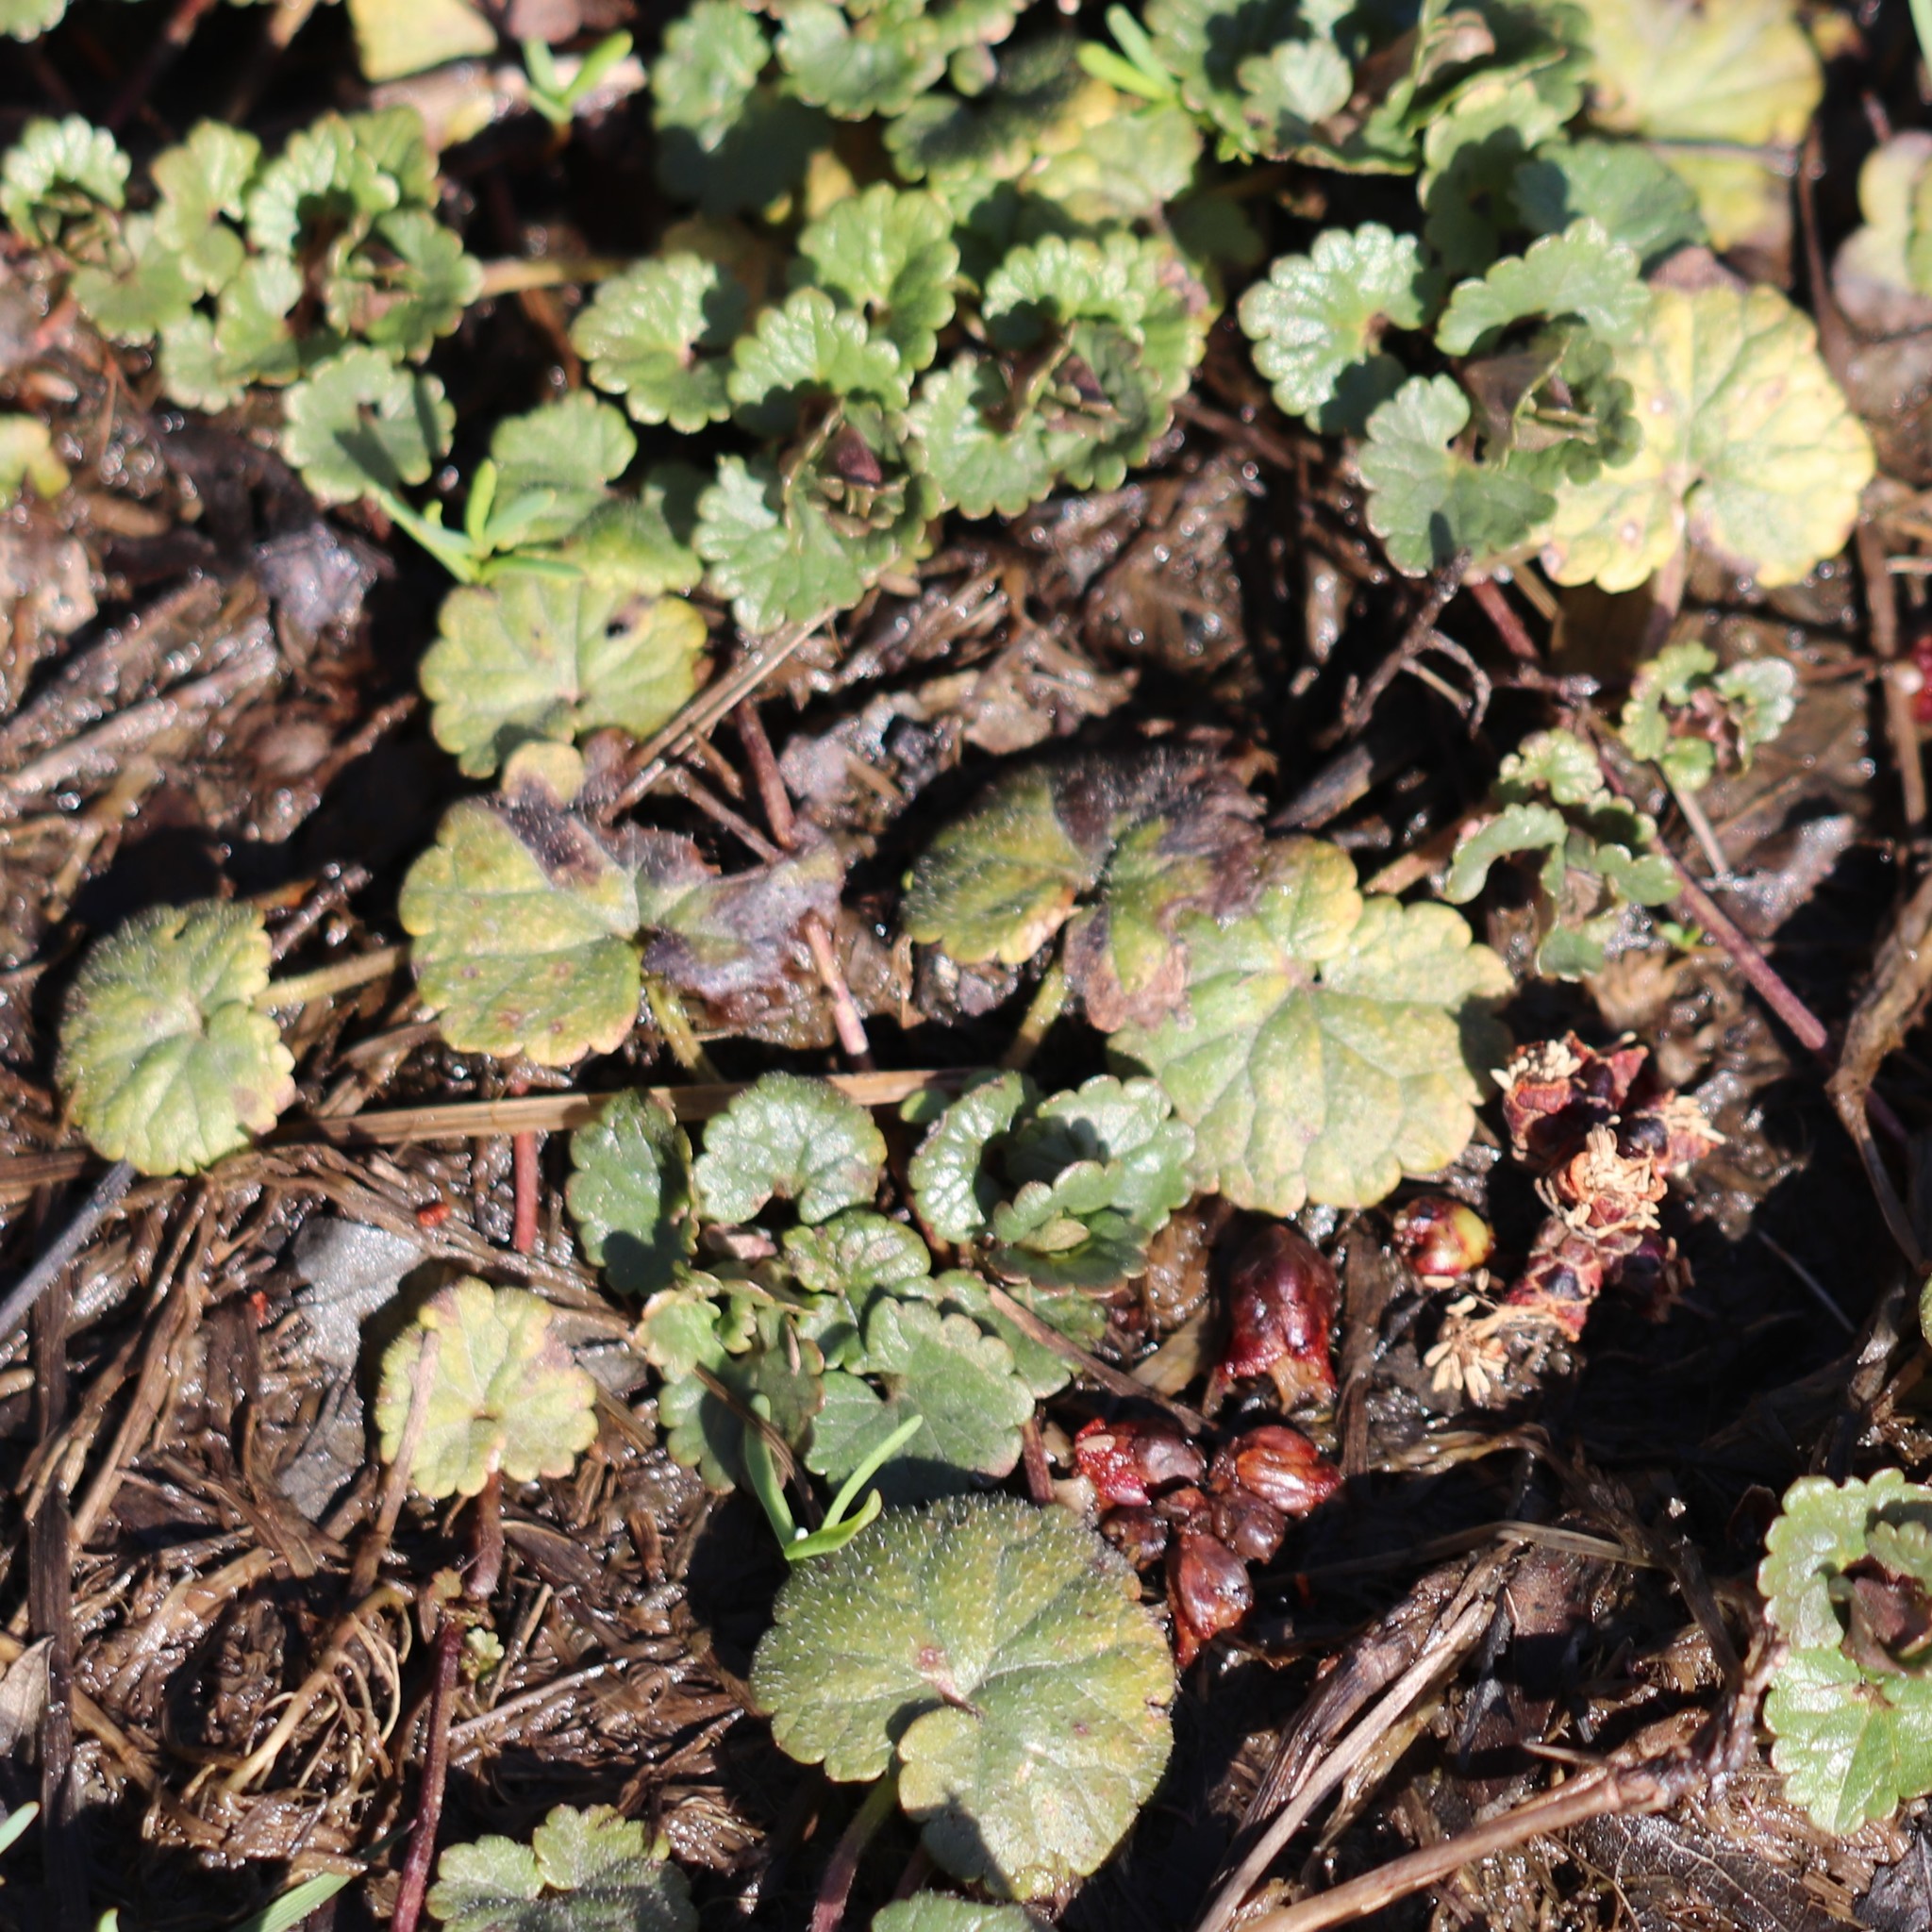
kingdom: Plantae
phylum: Tracheophyta
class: Magnoliopsida
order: Lamiales
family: Lamiaceae
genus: Glechoma
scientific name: Glechoma hederacea
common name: Ground ivy
